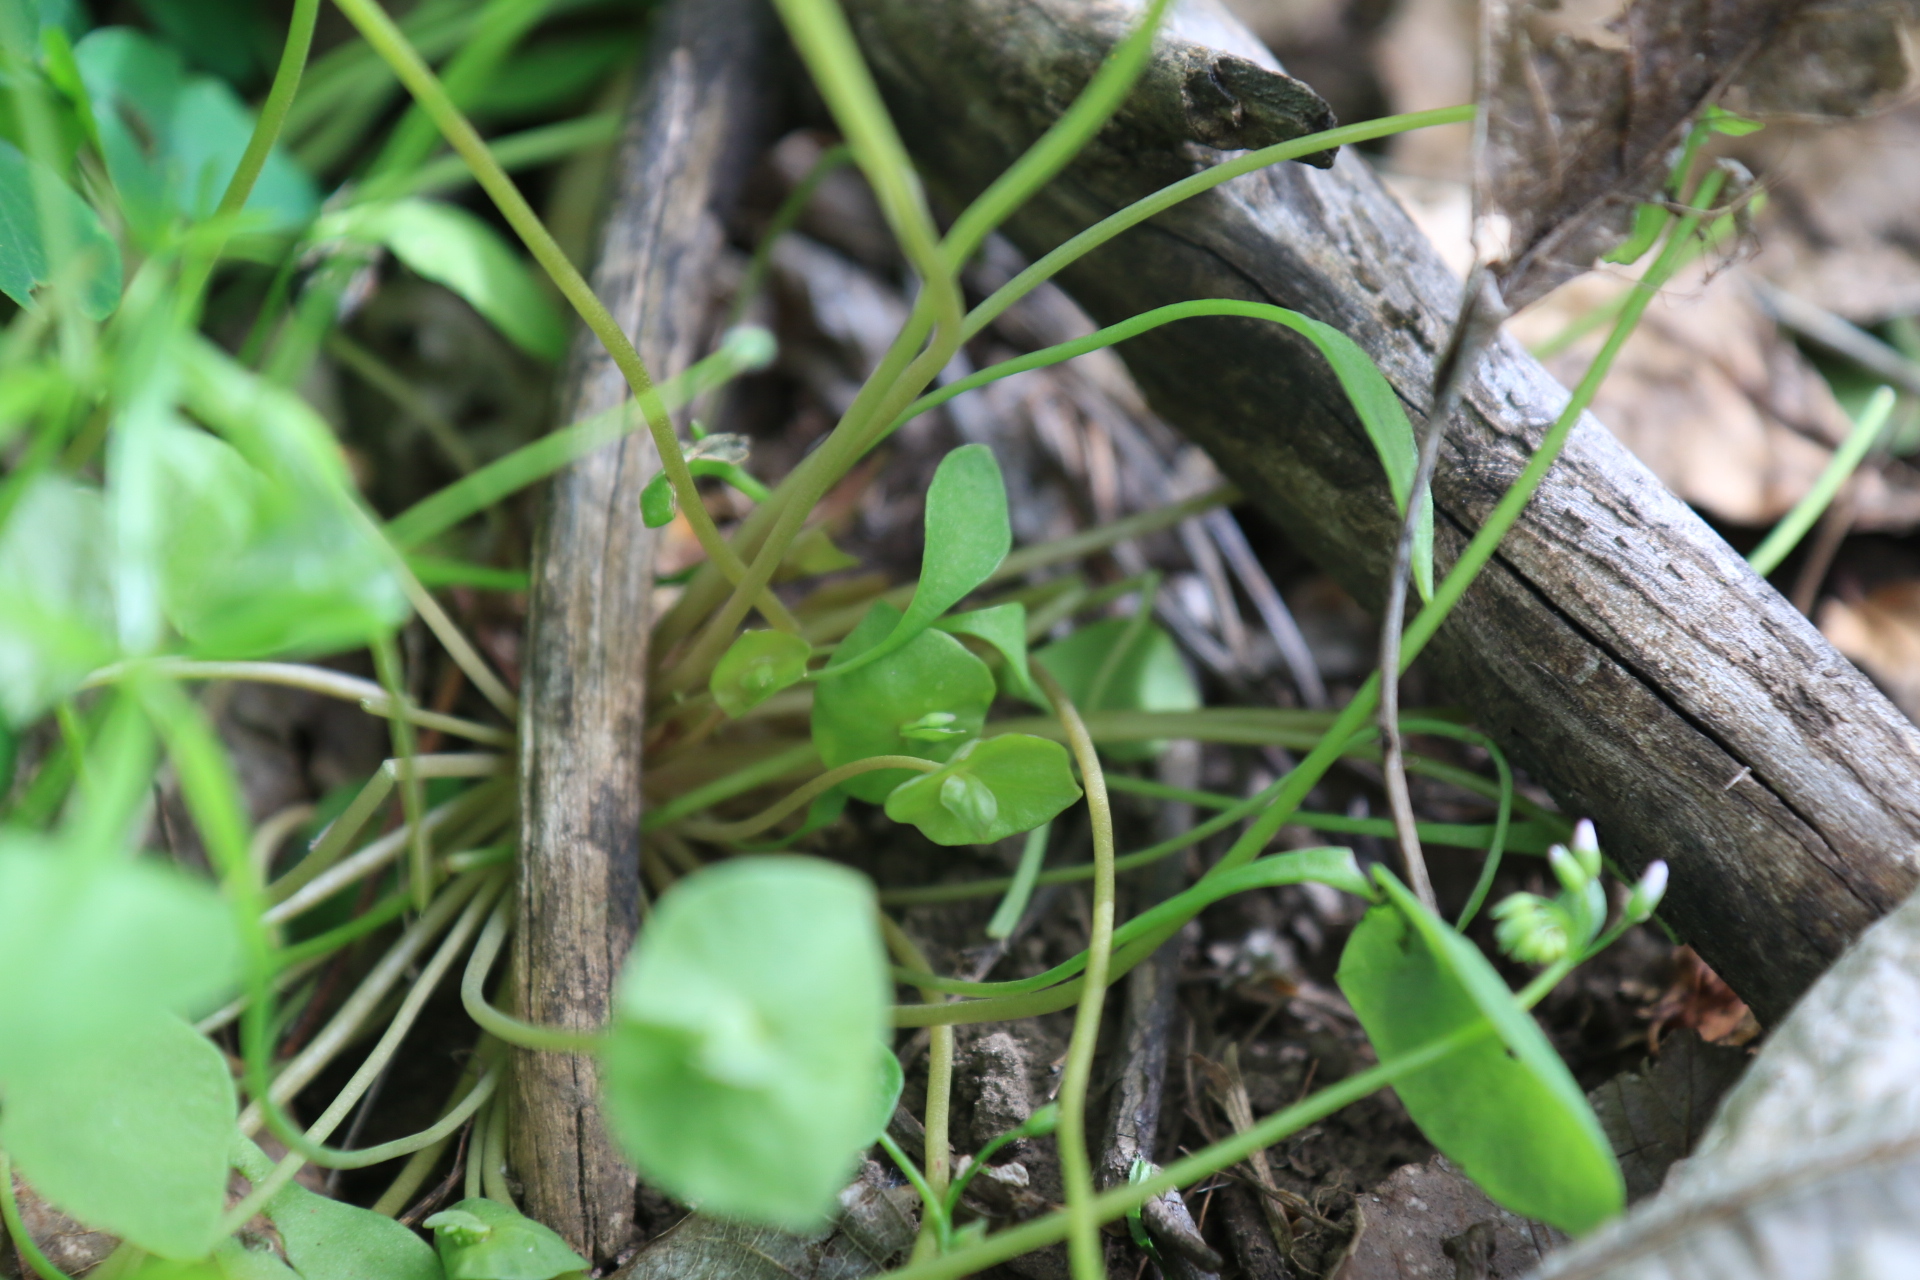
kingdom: Plantae
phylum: Tracheophyta
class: Magnoliopsida
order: Caryophyllales
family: Montiaceae
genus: Claytonia
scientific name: Claytonia perfoliata
